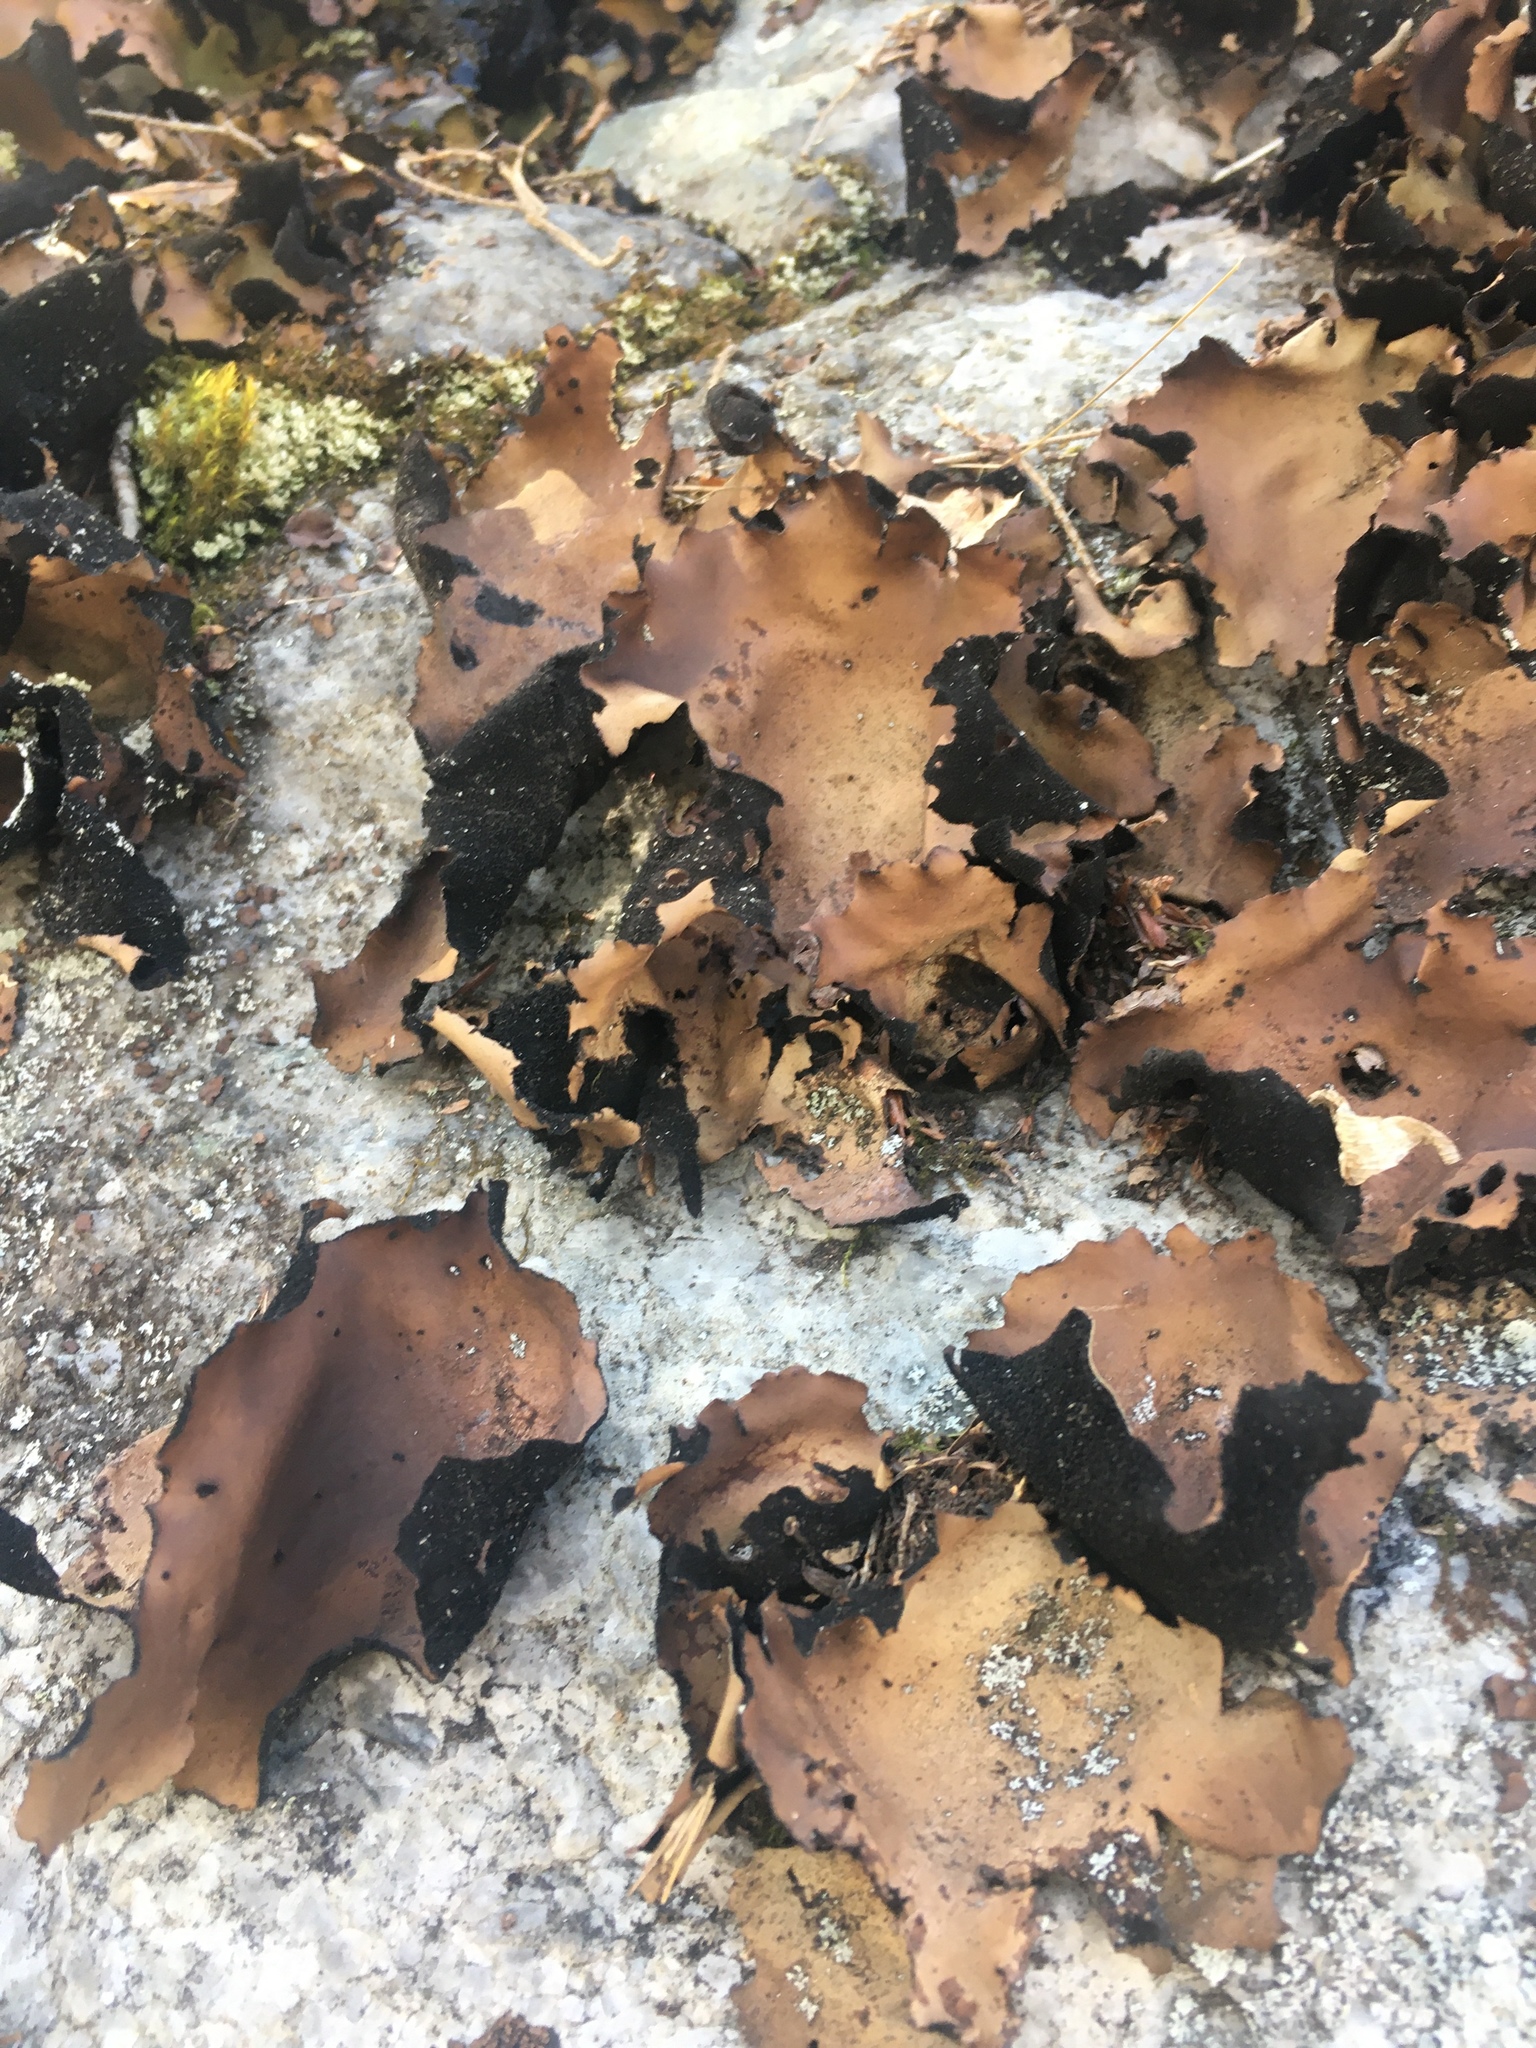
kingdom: Fungi
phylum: Ascomycota
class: Lecanoromycetes
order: Umbilicariales
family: Umbilicariaceae
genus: Umbilicaria
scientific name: Umbilicaria mammulata
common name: Smooth rock tripe
